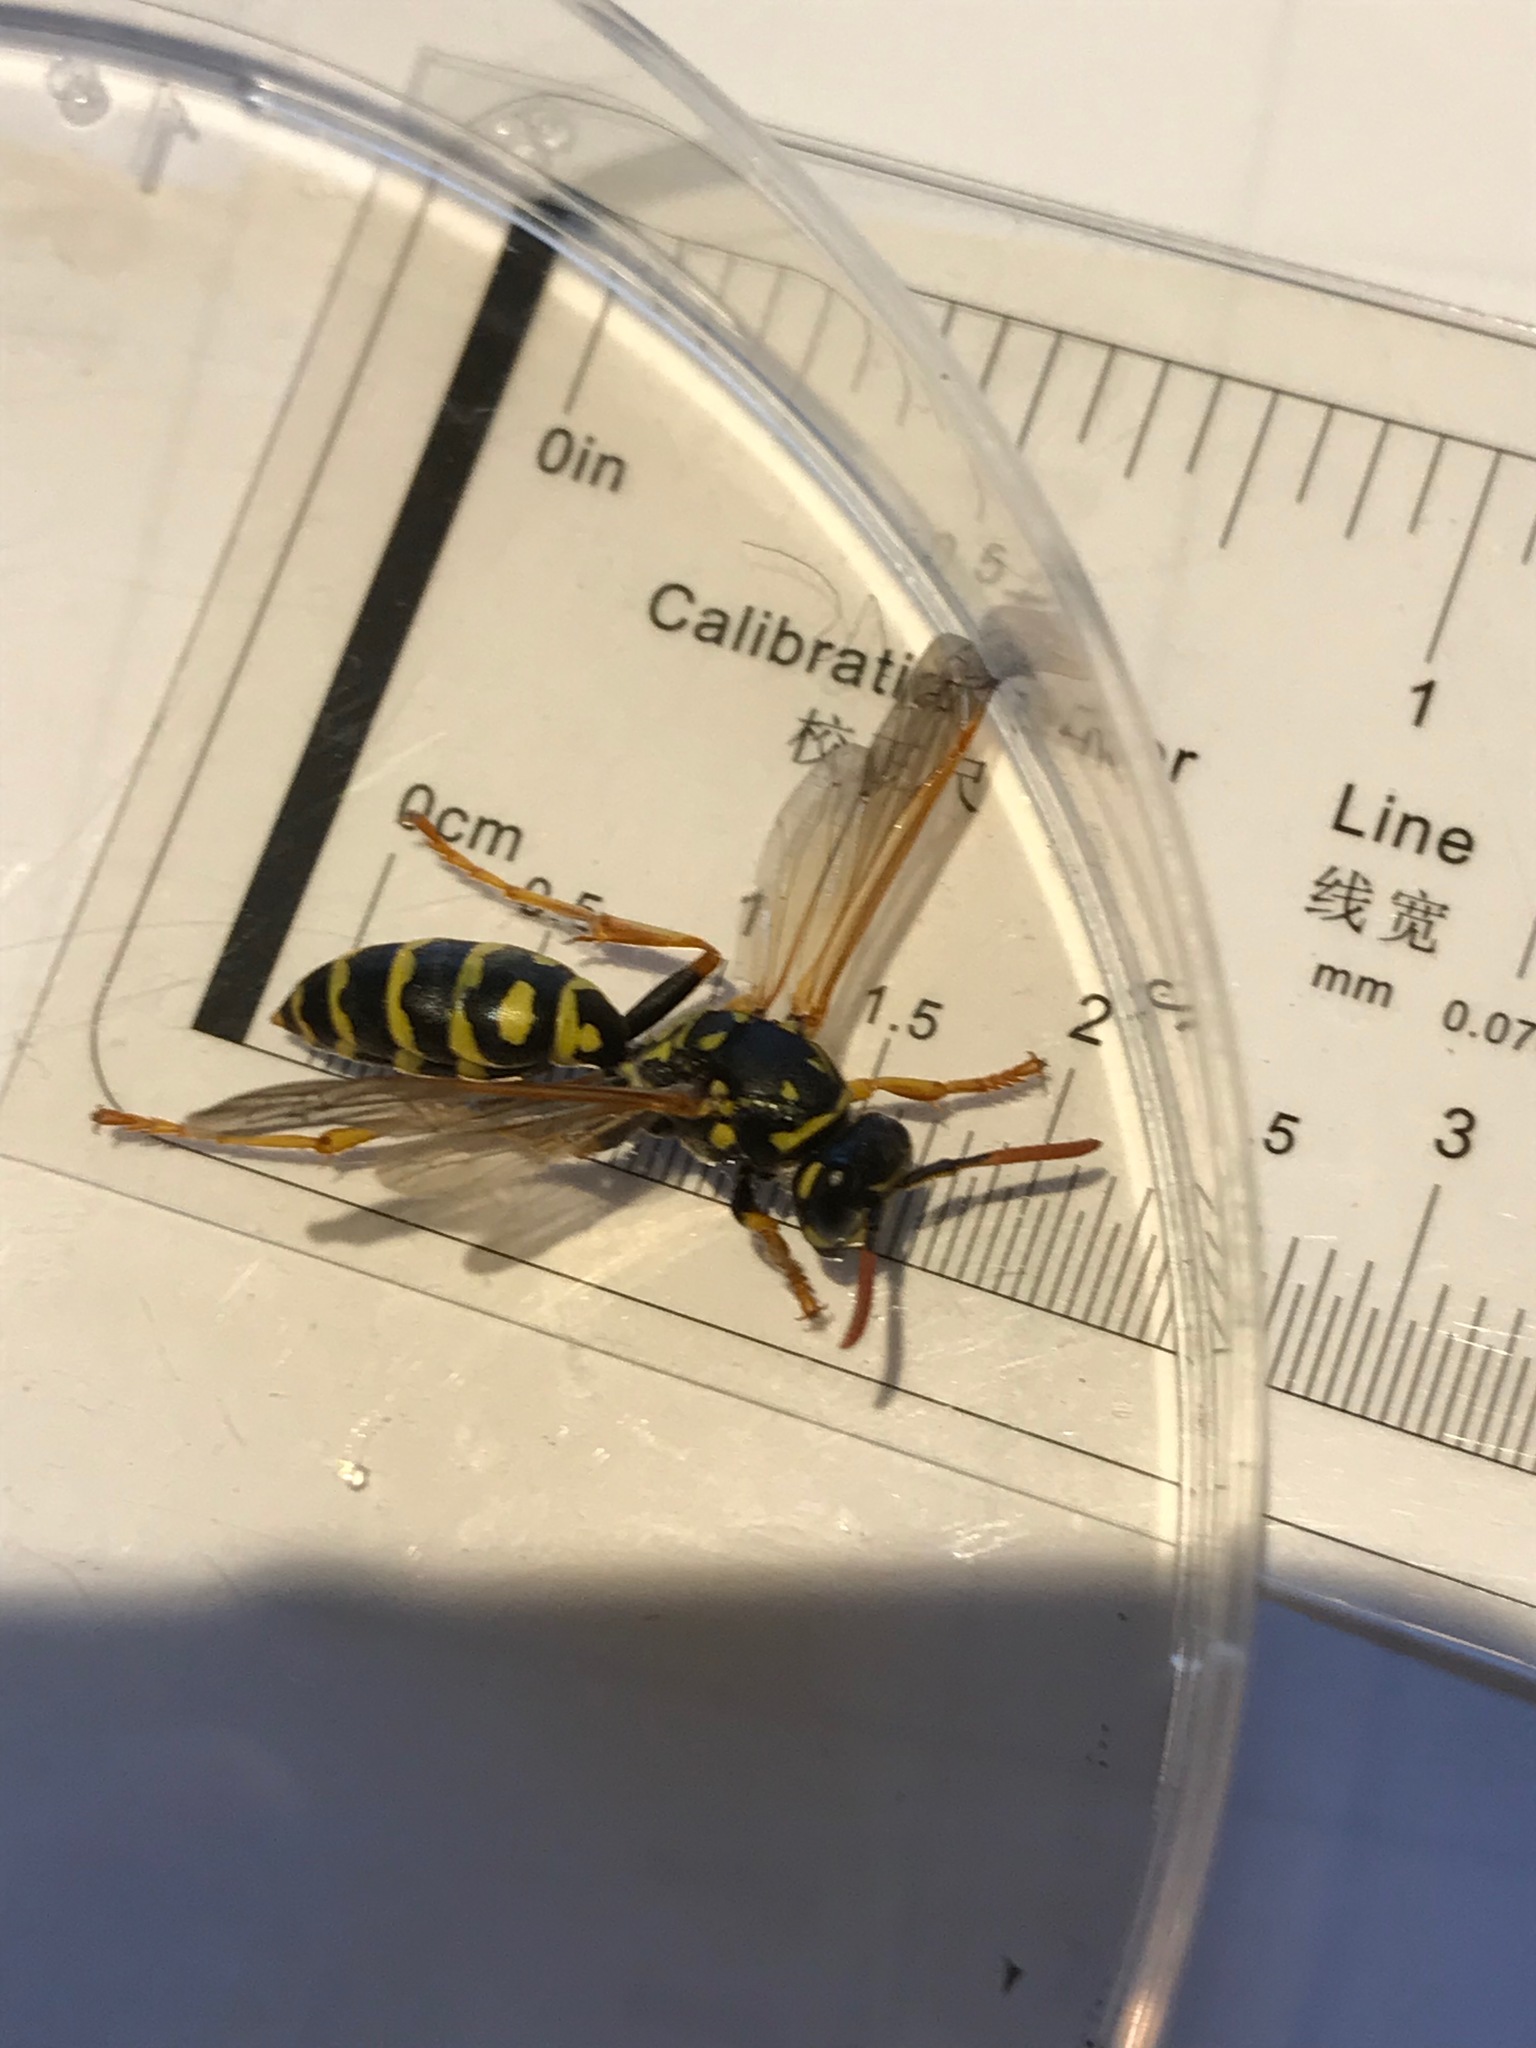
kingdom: Animalia
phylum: Arthropoda
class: Insecta
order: Hymenoptera
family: Eumenidae
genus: Polistes
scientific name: Polistes dominula
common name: Paper wasp
